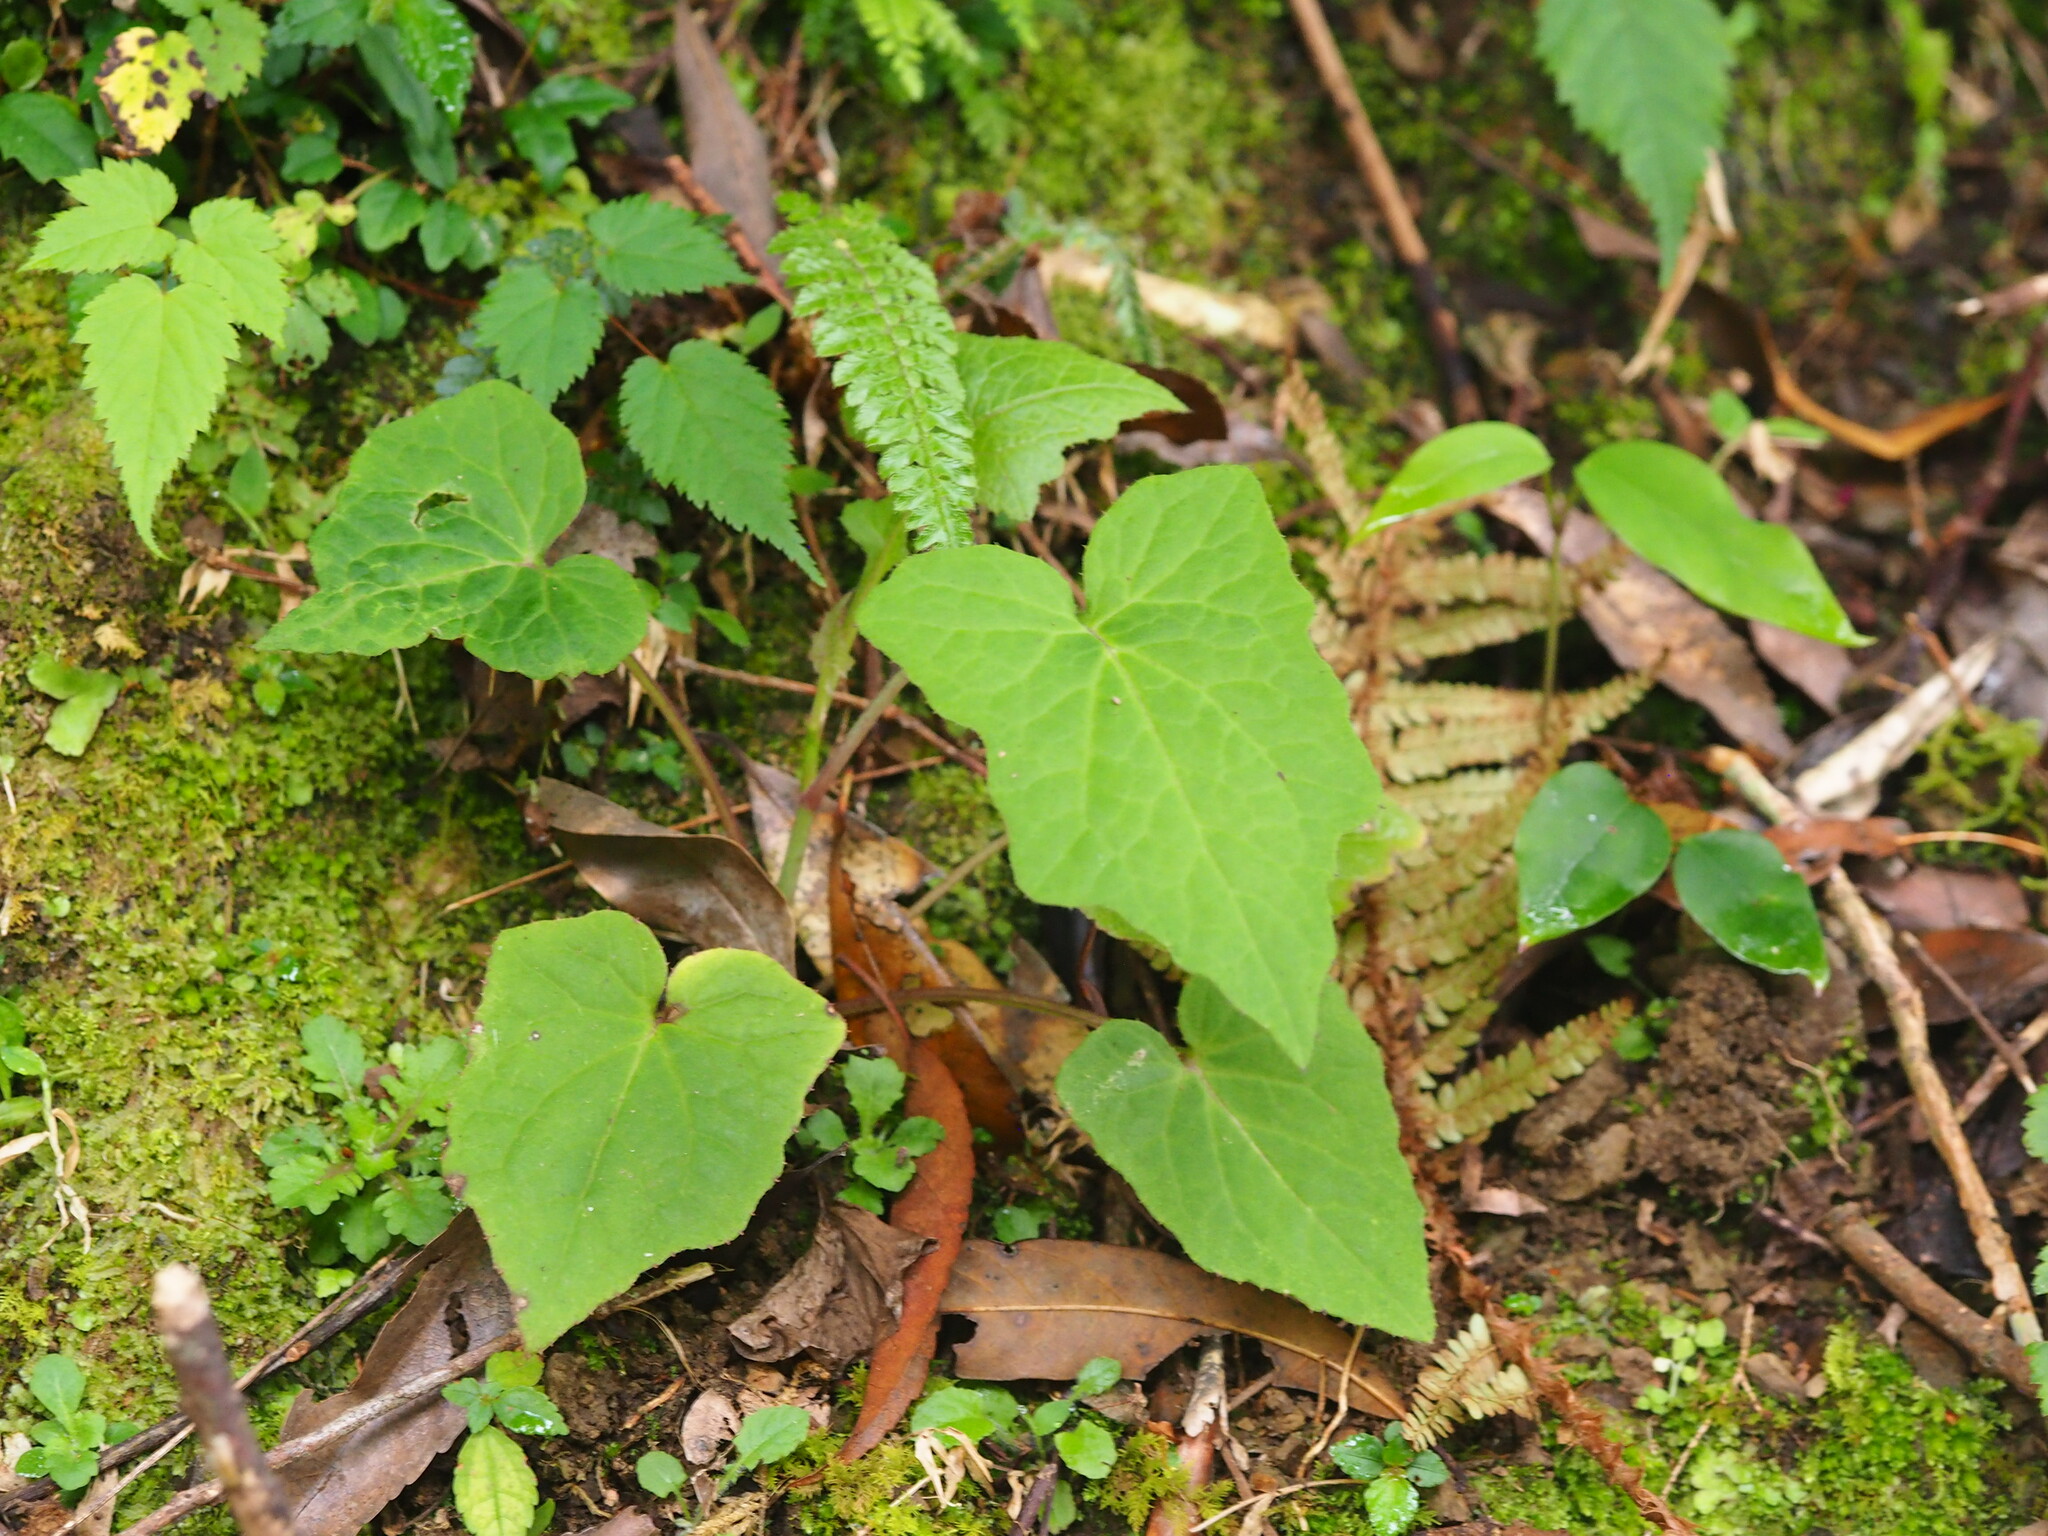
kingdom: Plantae
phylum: Tracheophyta
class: Magnoliopsida
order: Asterales
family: Asteraceae
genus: Paraprenanthes
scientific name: Paraprenanthes sororia
